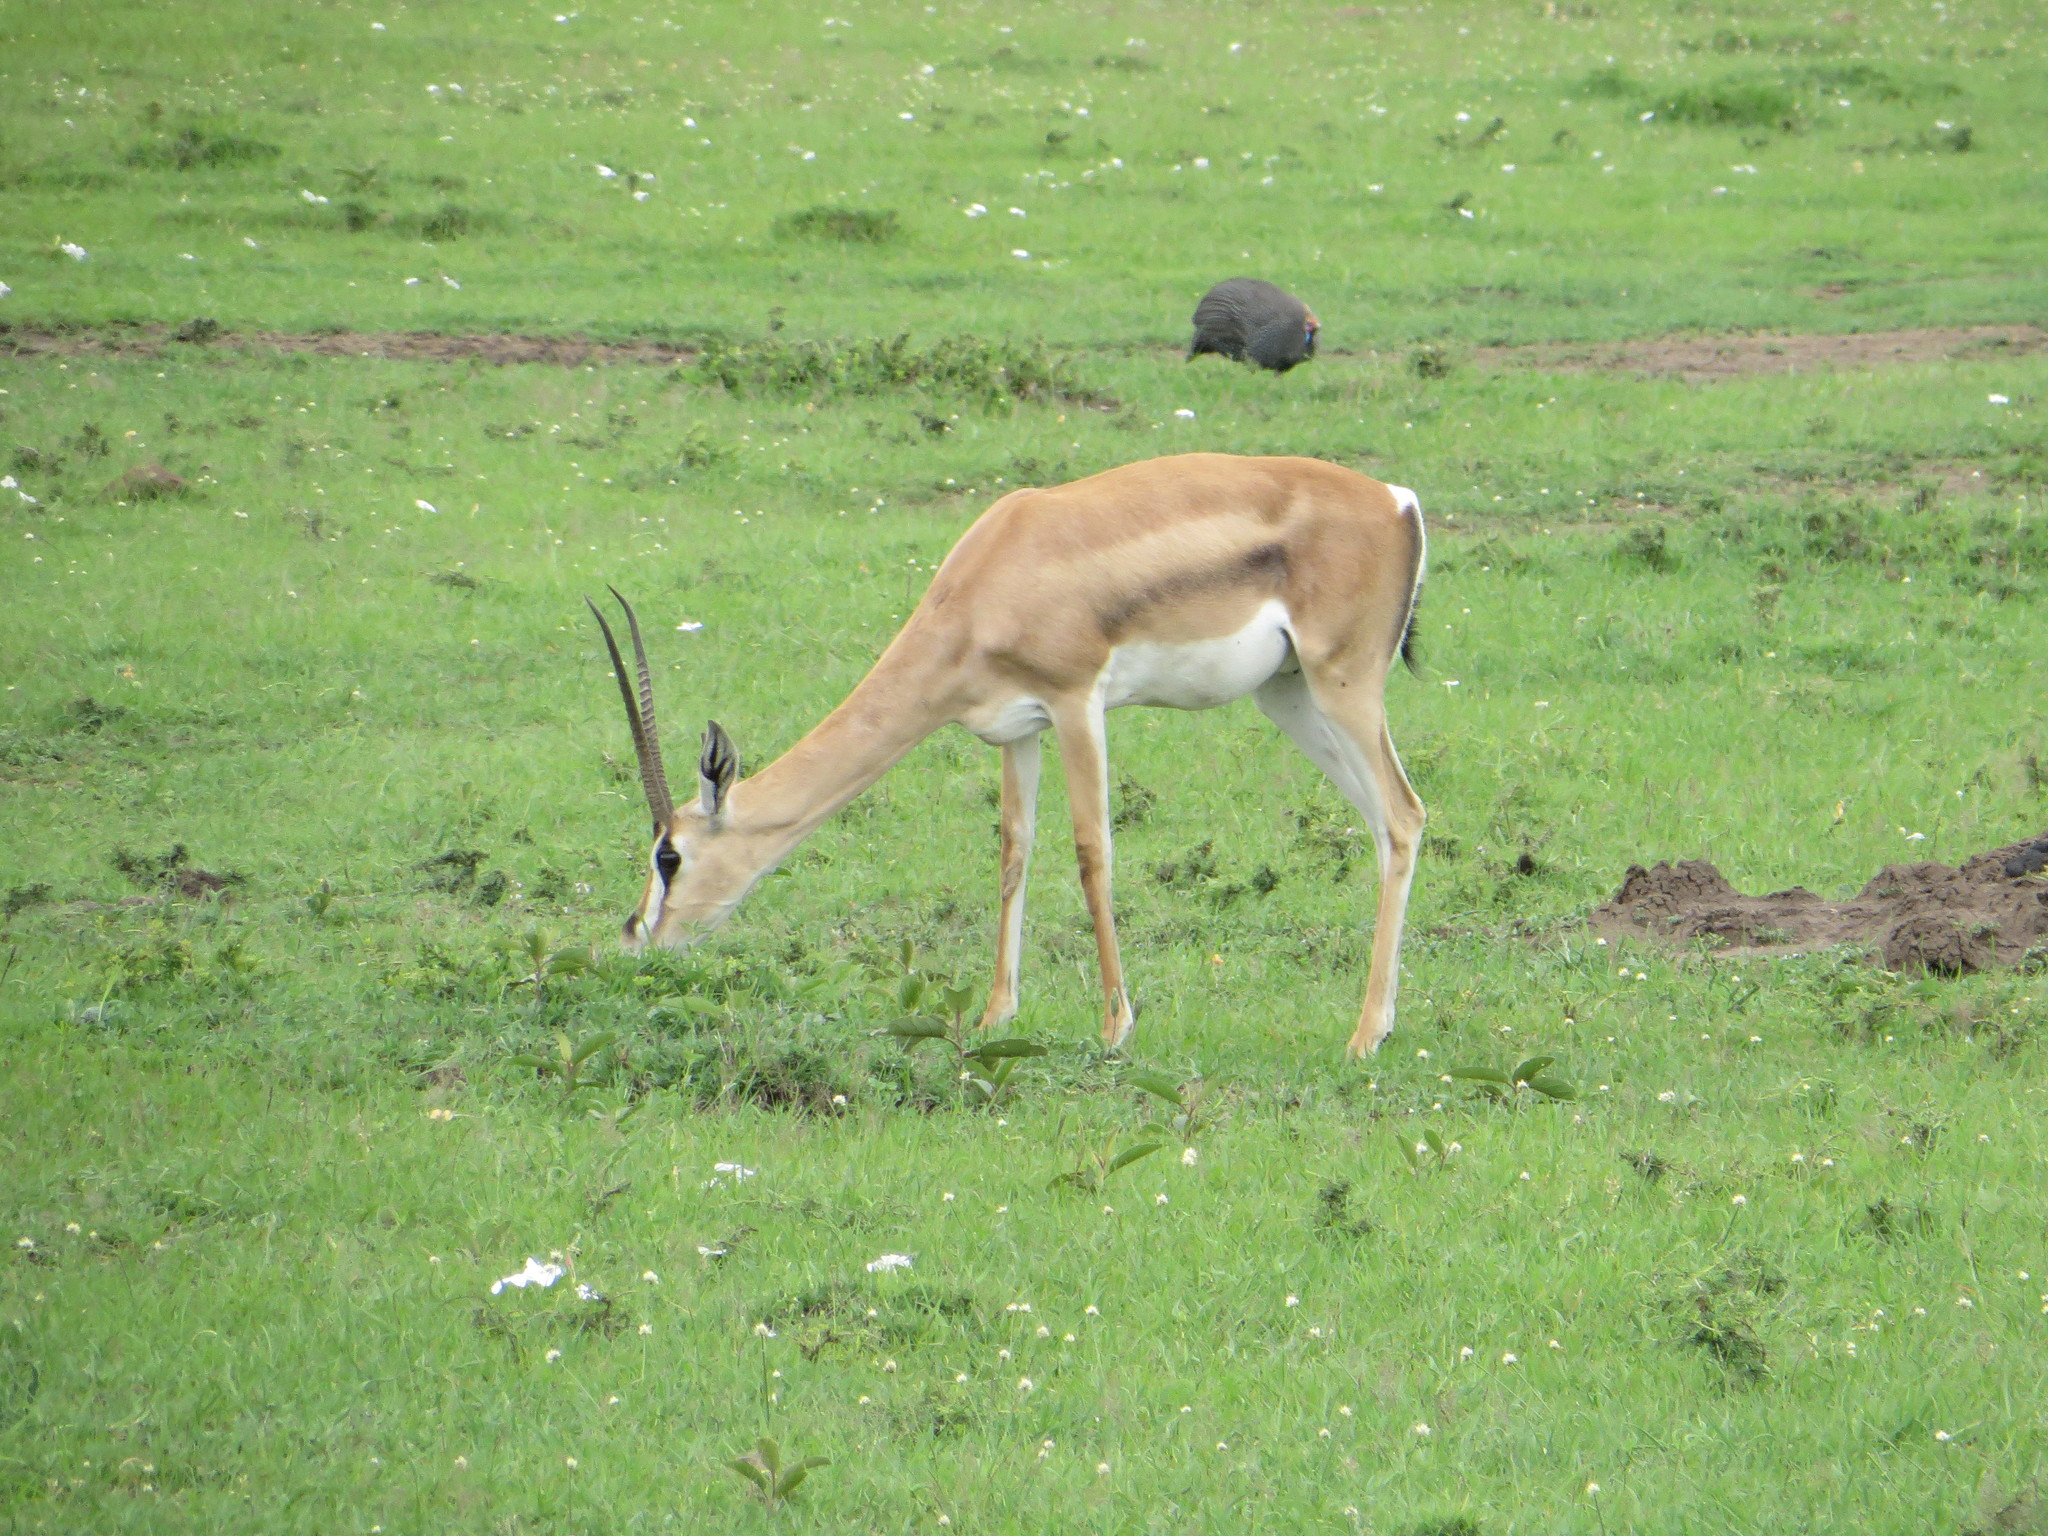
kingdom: Animalia
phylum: Chordata
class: Mammalia
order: Artiodactyla
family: Bovidae
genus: Nanger
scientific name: Nanger granti
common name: Grant's gazelle
